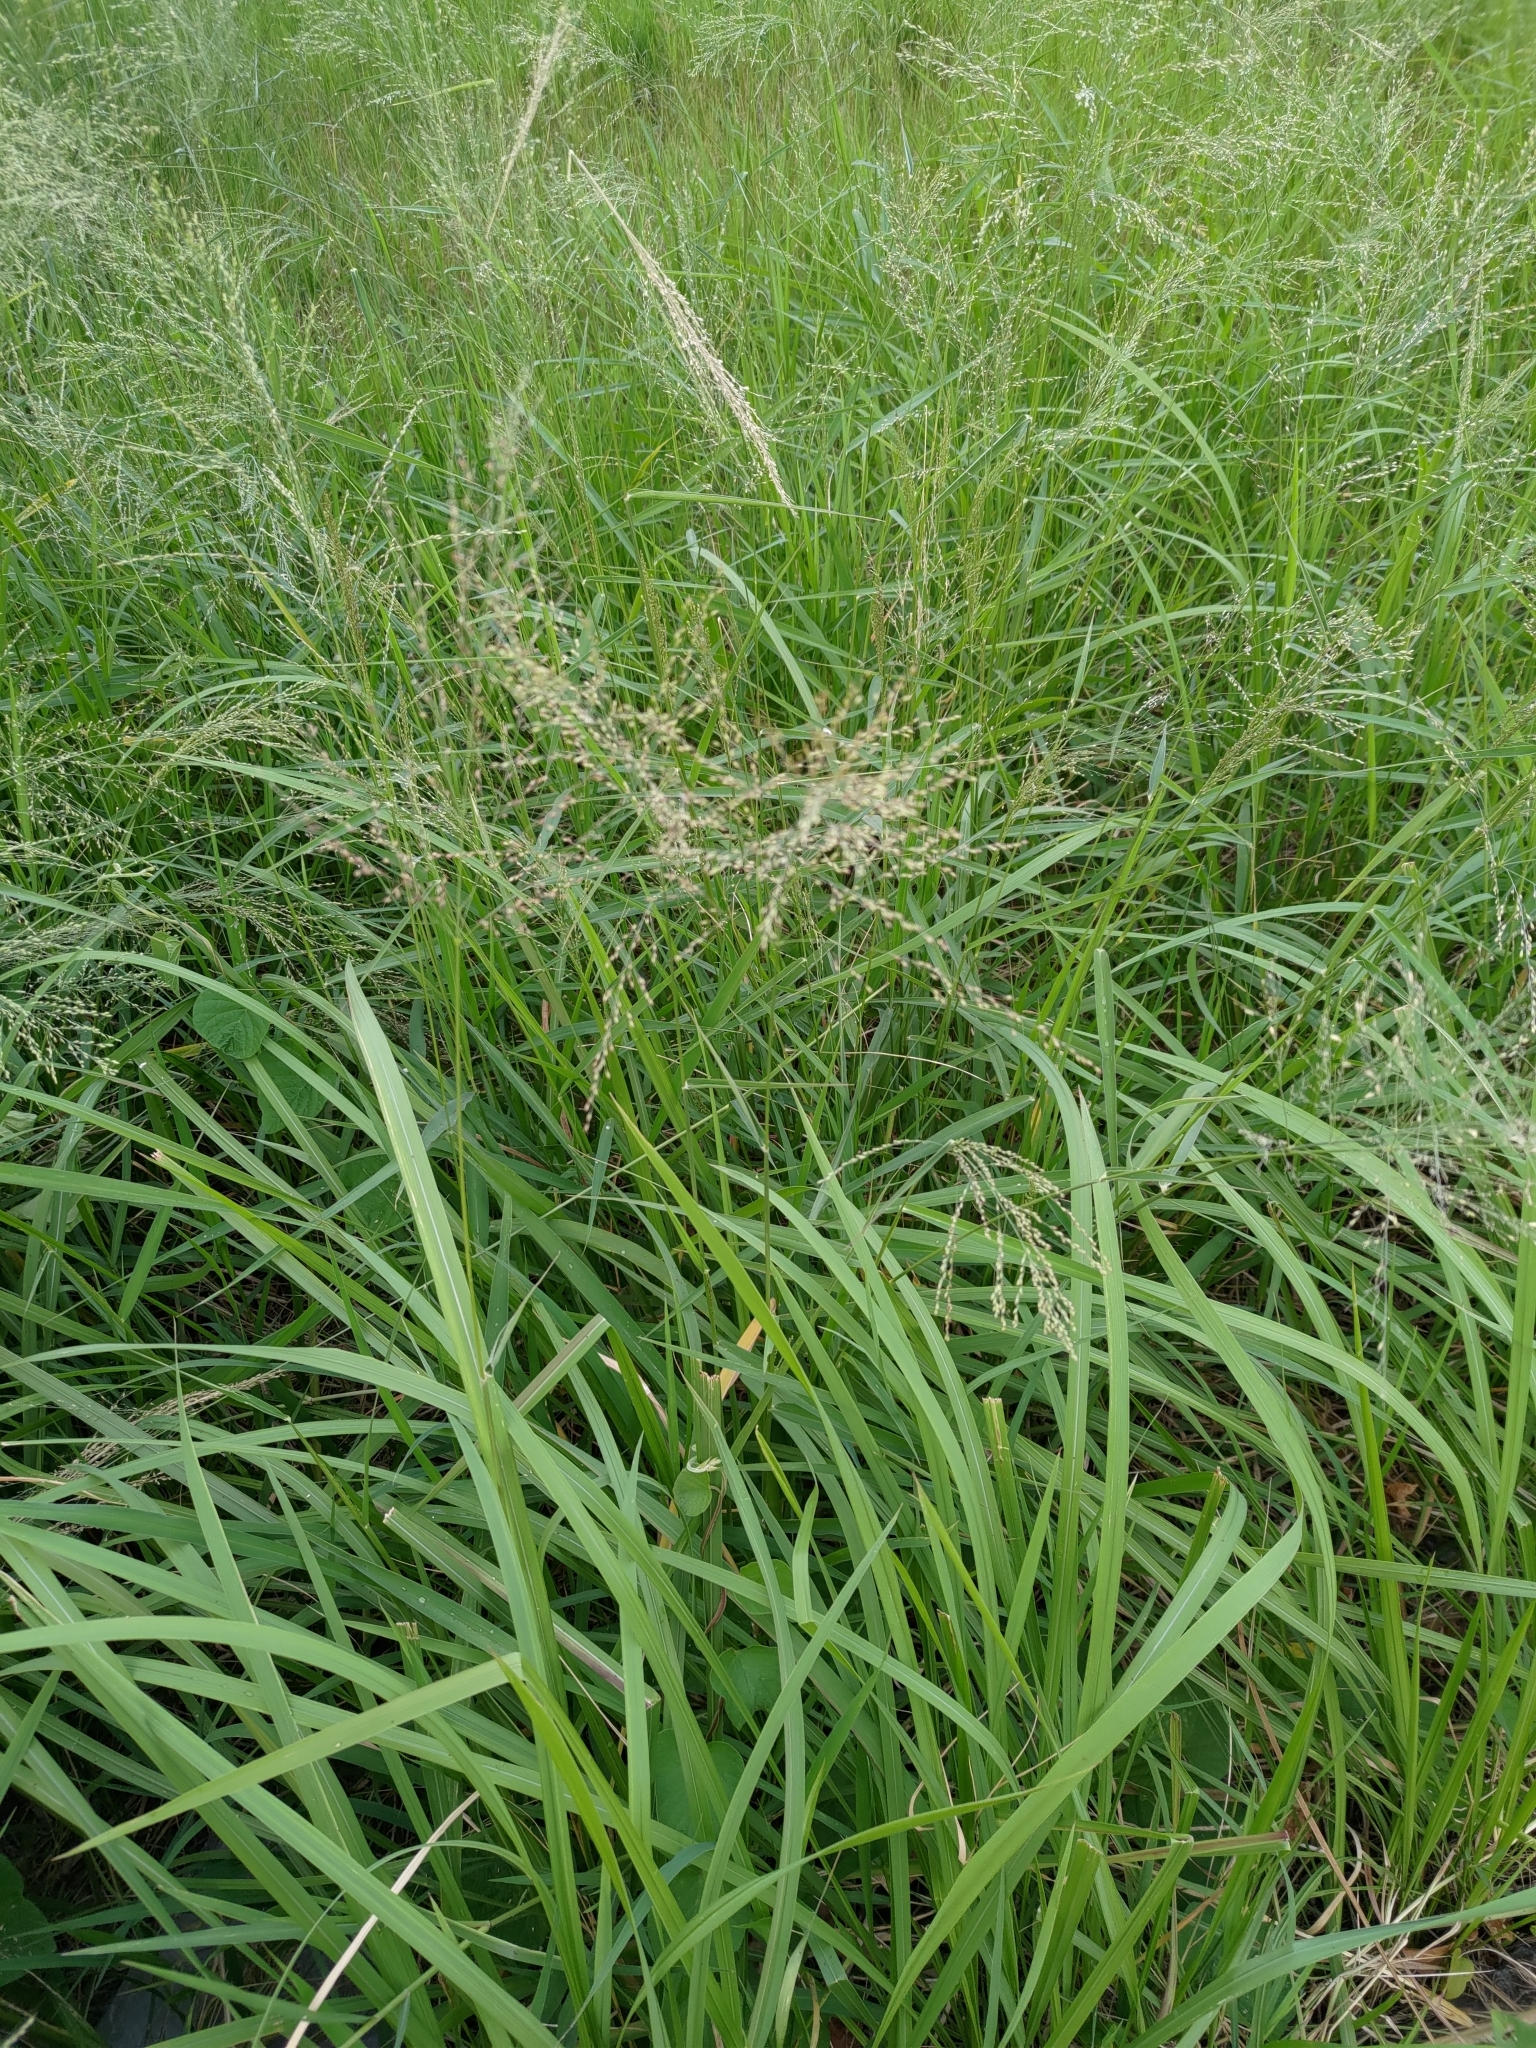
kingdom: Plantae
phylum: Tracheophyta
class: Liliopsida
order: Poales
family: Poaceae
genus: Megathyrsus
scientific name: Megathyrsus maximus
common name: Guineagrass
